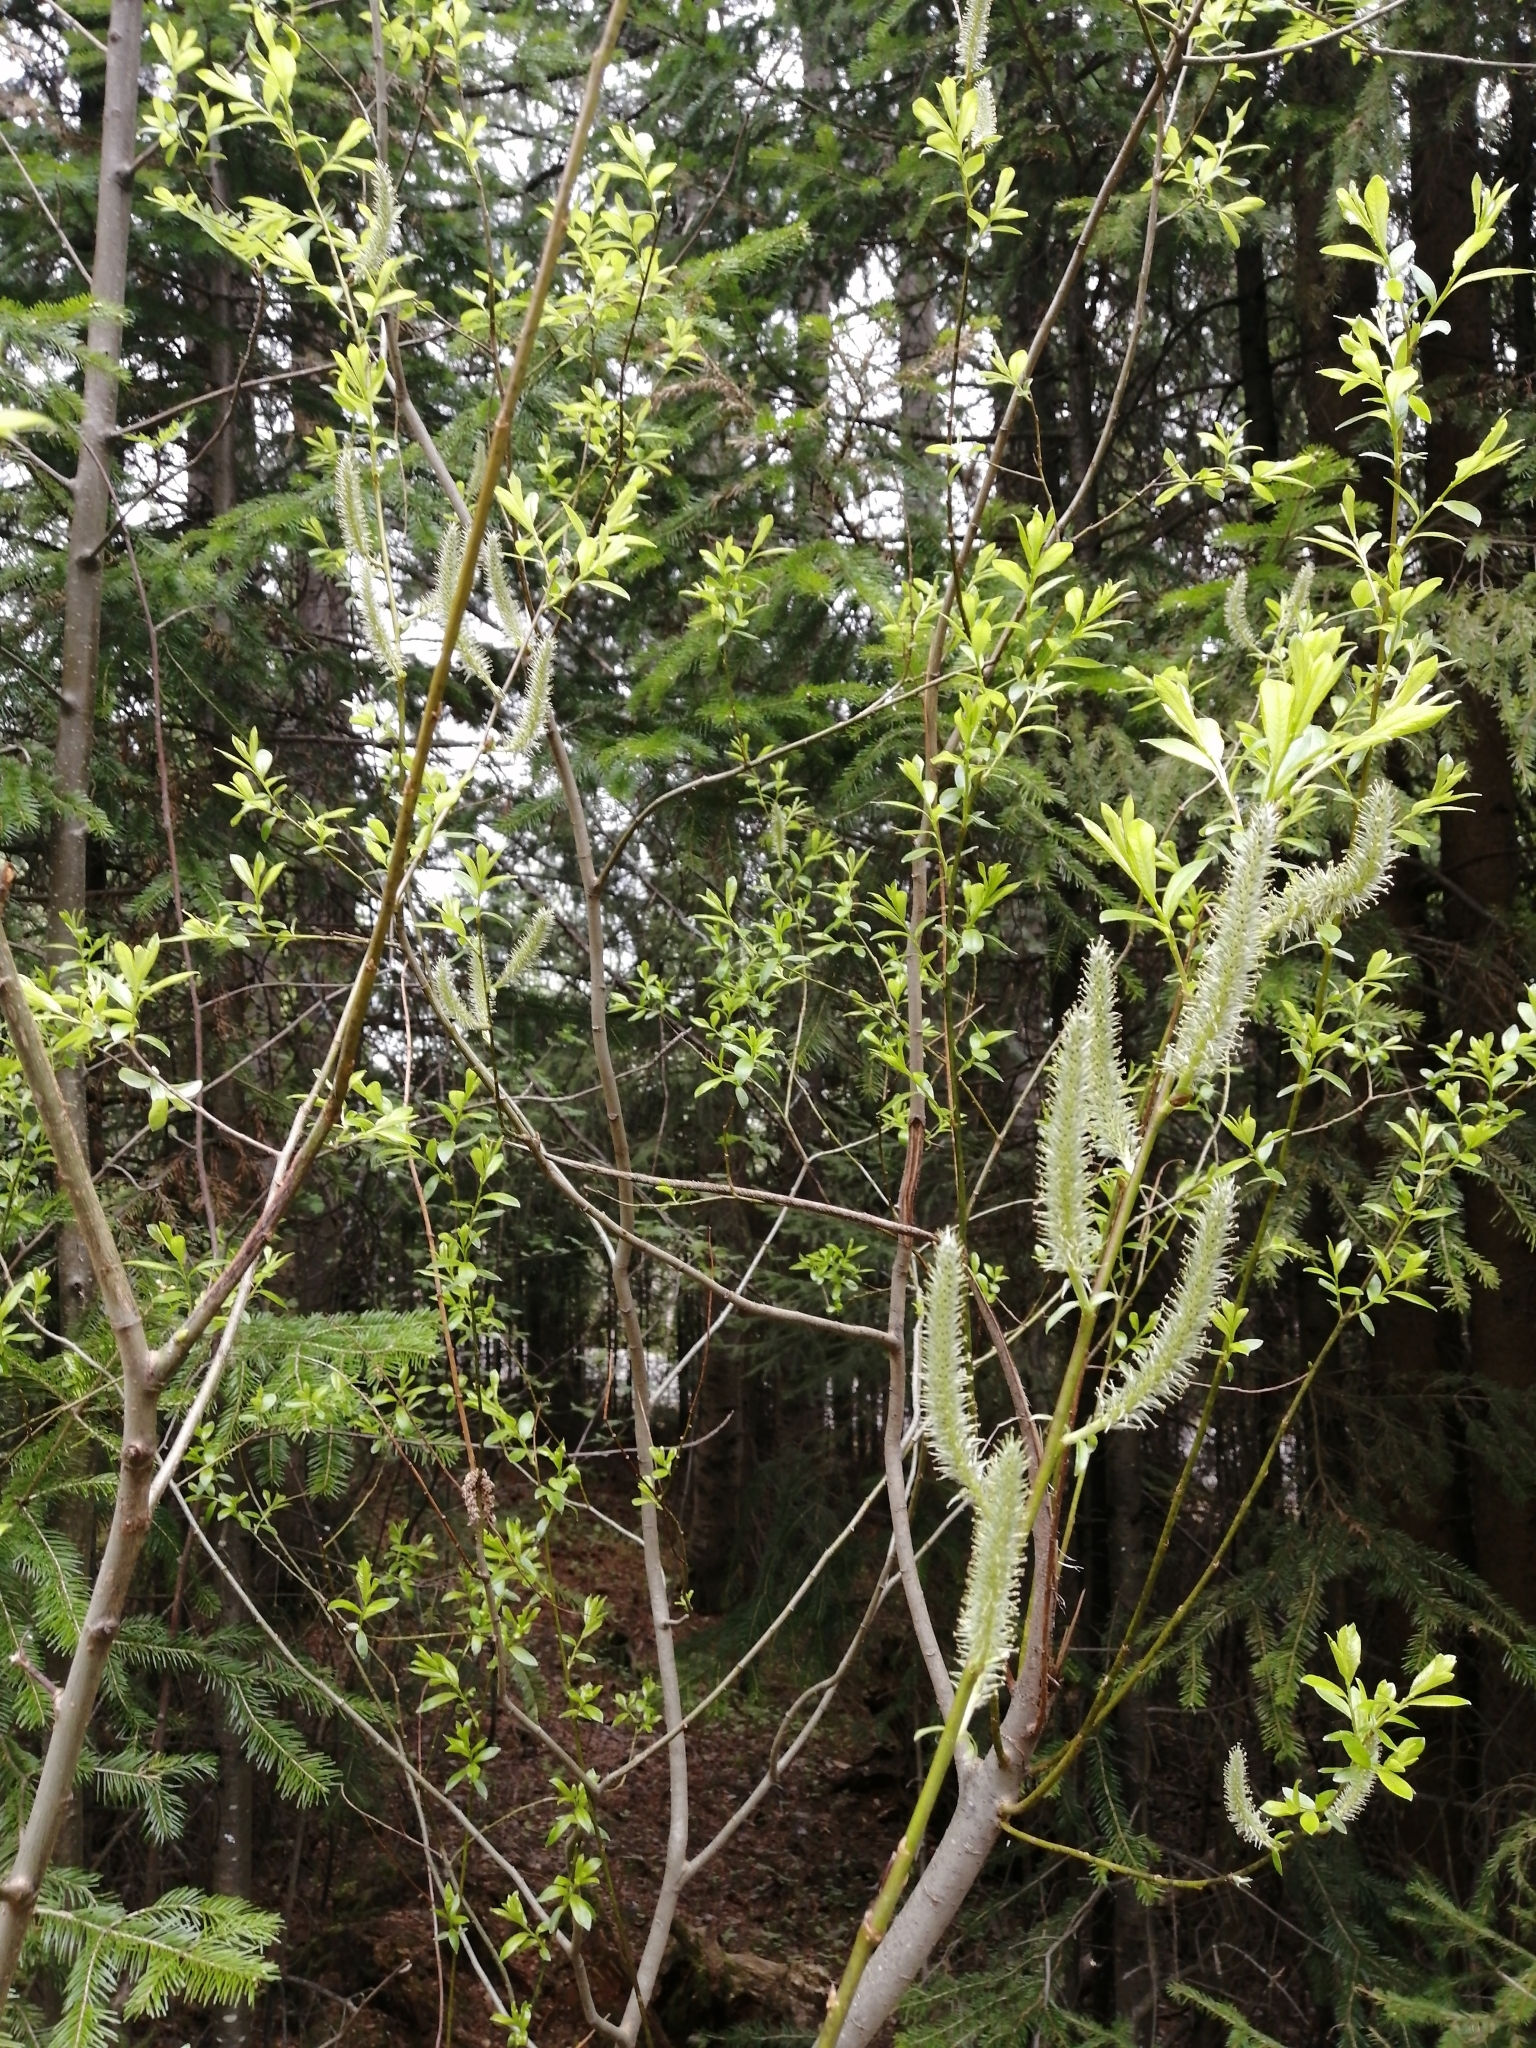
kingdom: Plantae
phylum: Tracheophyta
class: Magnoliopsida
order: Malpighiales
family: Salicaceae
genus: Salix
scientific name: Salix cinerea
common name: Common sallow
